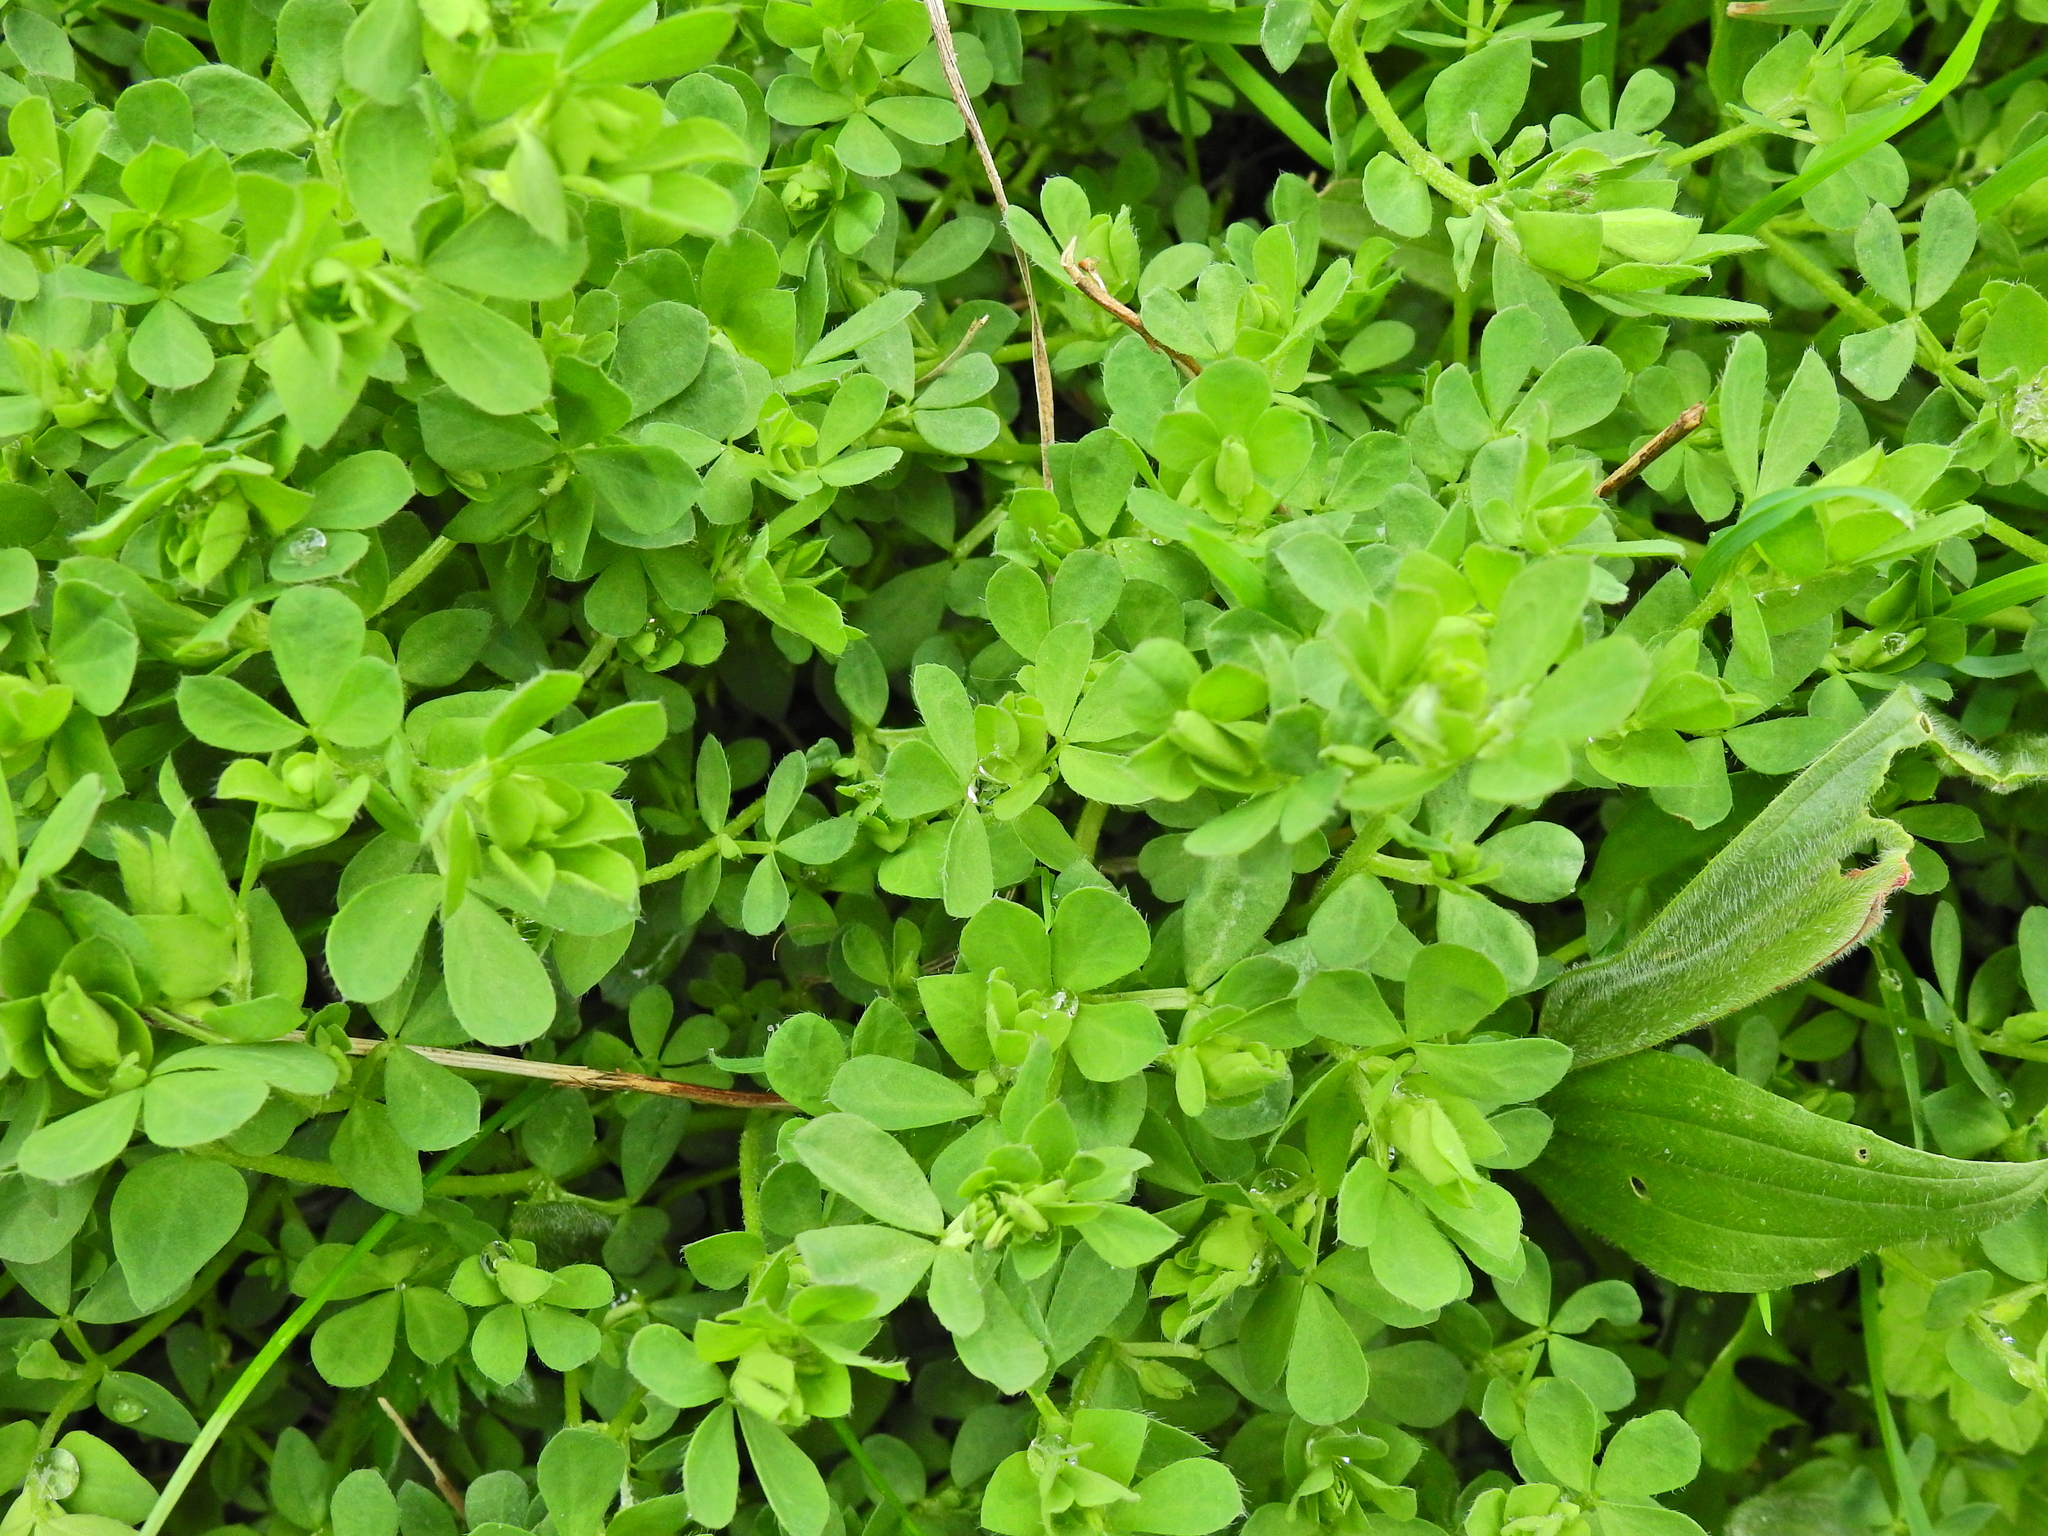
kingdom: Plantae
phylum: Tracheophyta
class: Magnoliopsida
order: Fabales
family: Fabaceae
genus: Lotus
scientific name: Lotus corniculatus
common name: Common bird's-foot-trefoil
